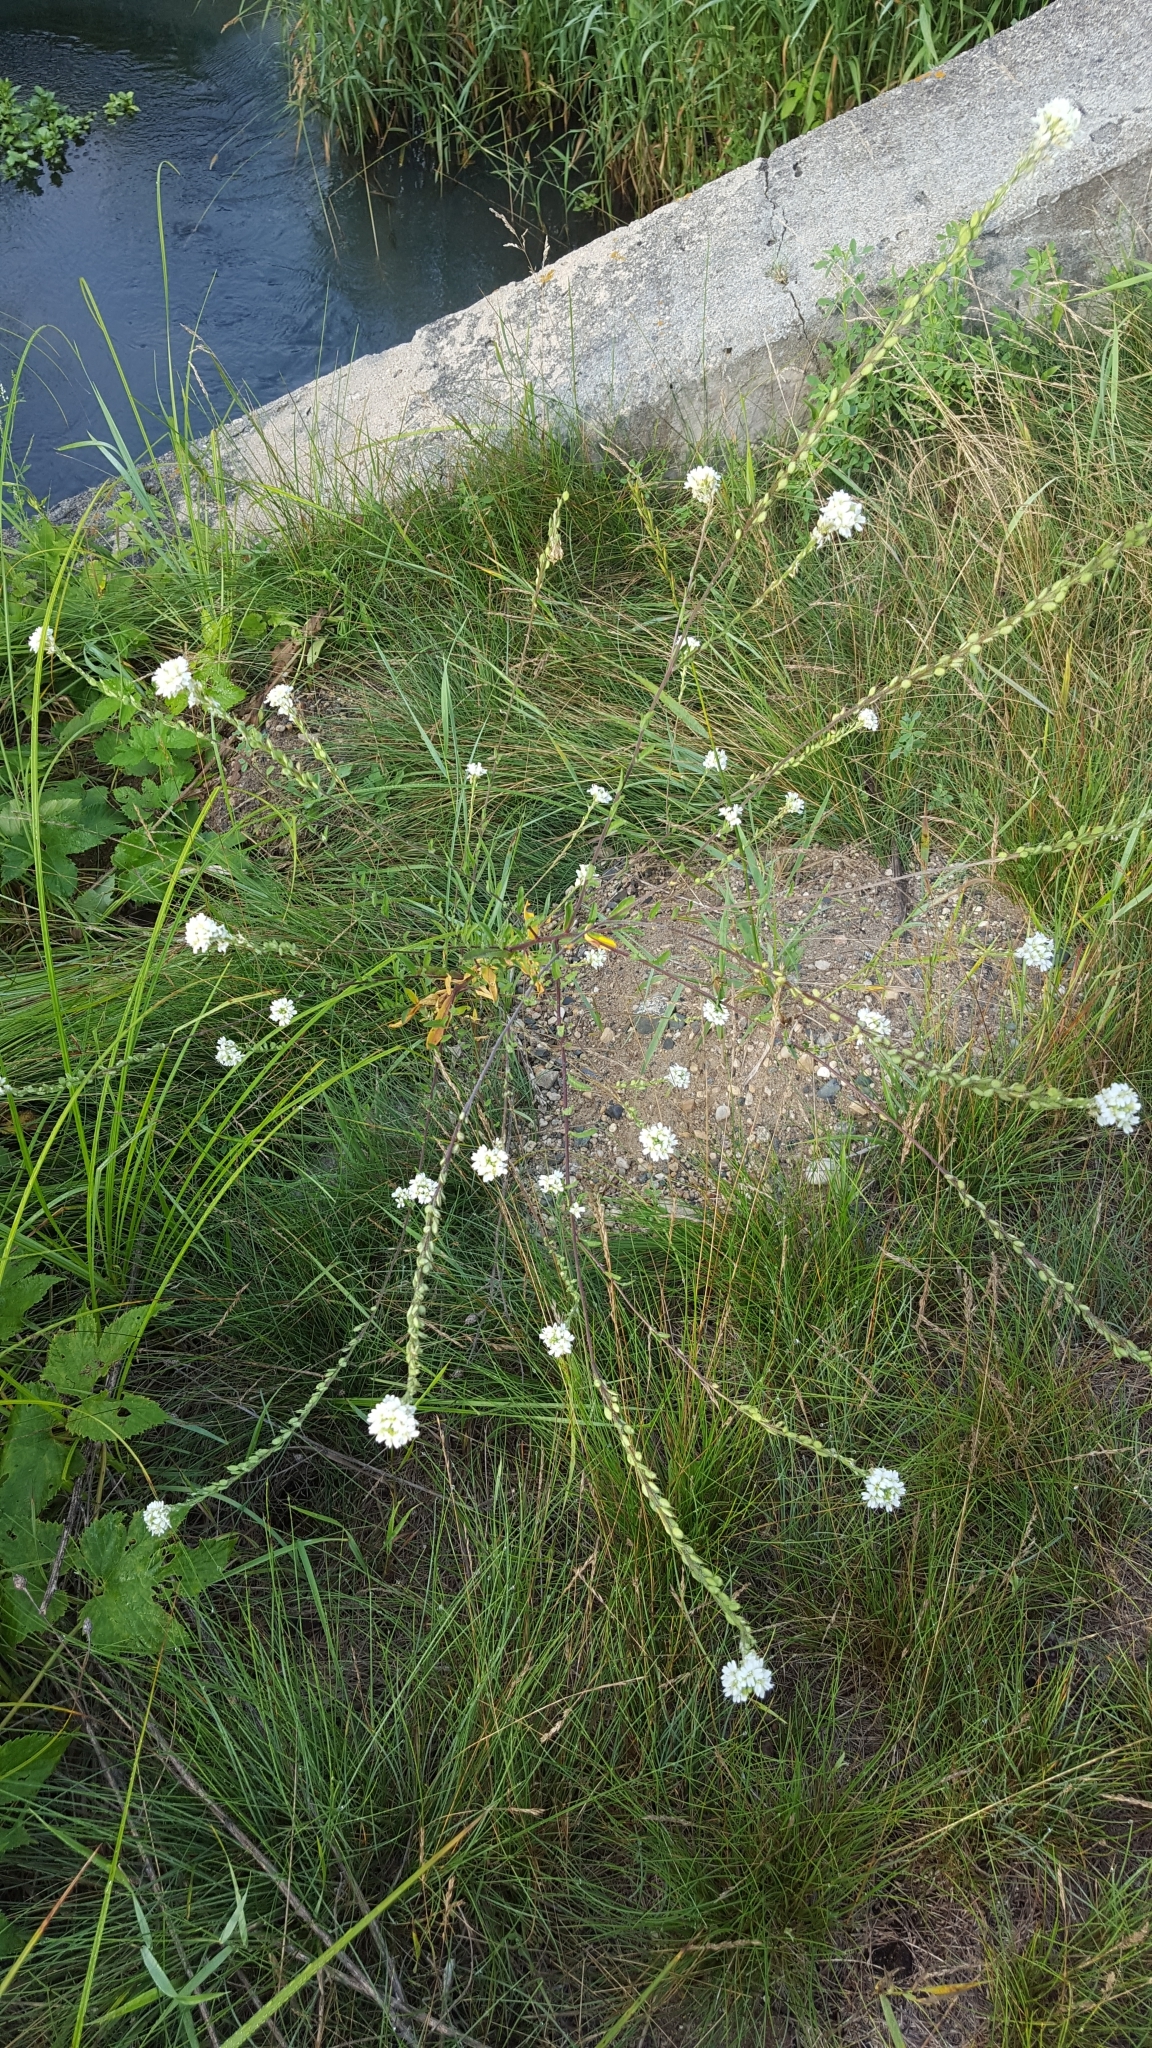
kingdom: Plantae
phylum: Tracheophyta
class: Magnoliopsida
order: Brassicales
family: Brassicaceae
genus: Berteroa
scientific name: Berteroa incana
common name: Hoary alison
